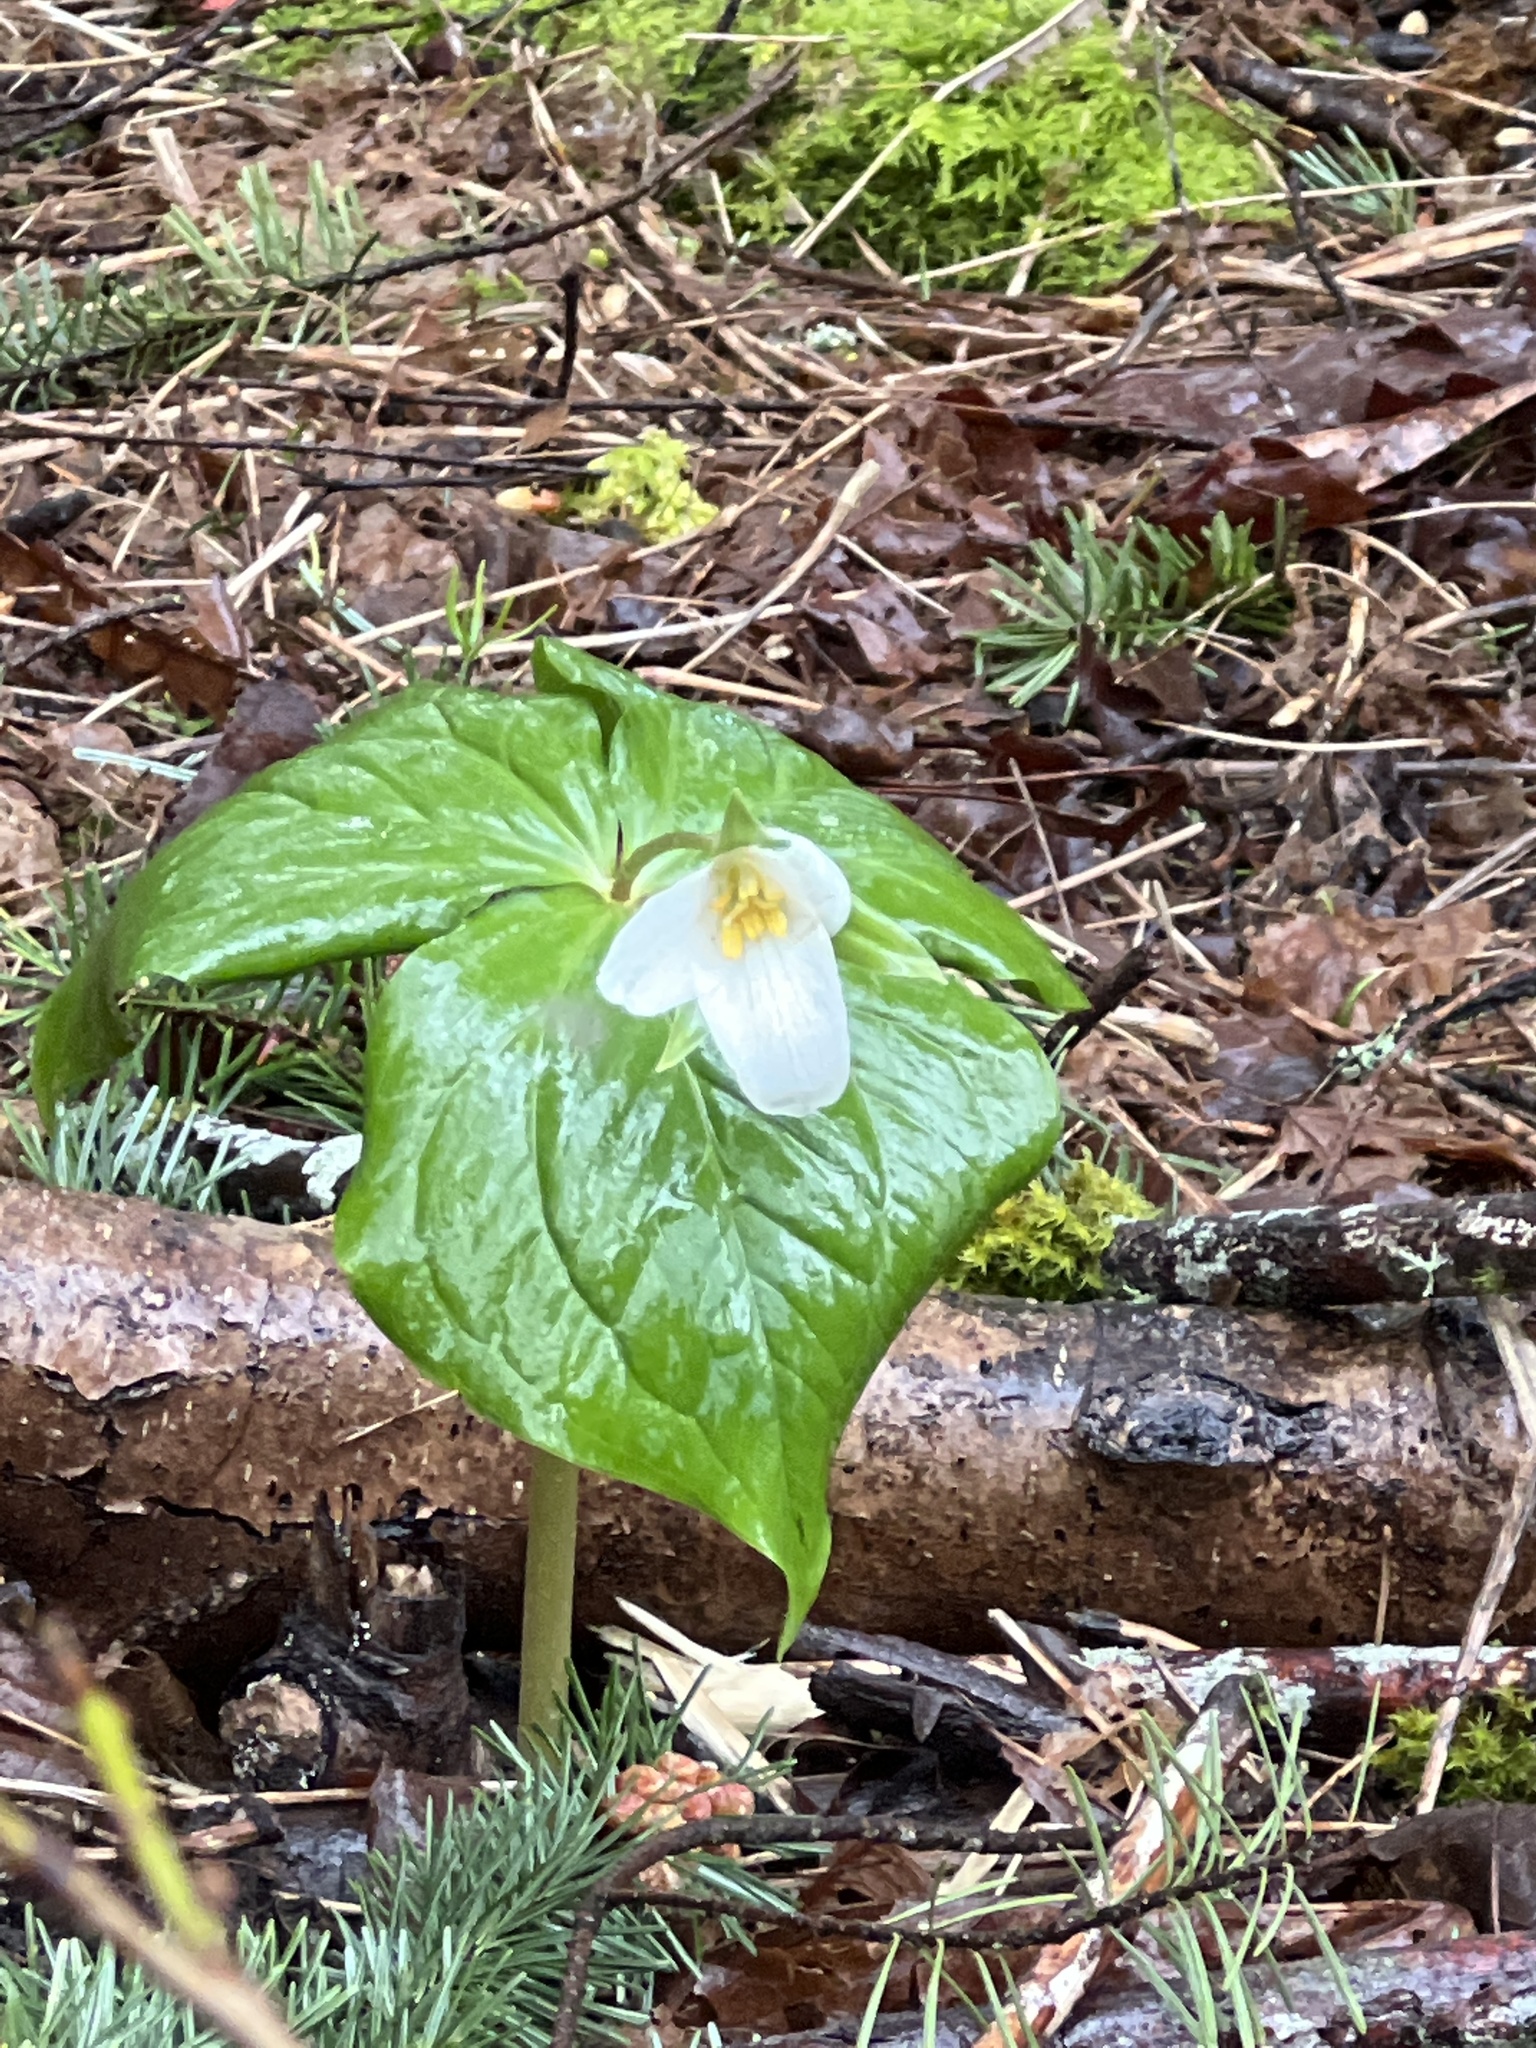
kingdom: Plantae
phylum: Tracheophyta
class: Liliopsida
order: Liliales
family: Melanthiaceae
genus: Trillium
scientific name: Trillium ovatum
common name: Pacific trillium
